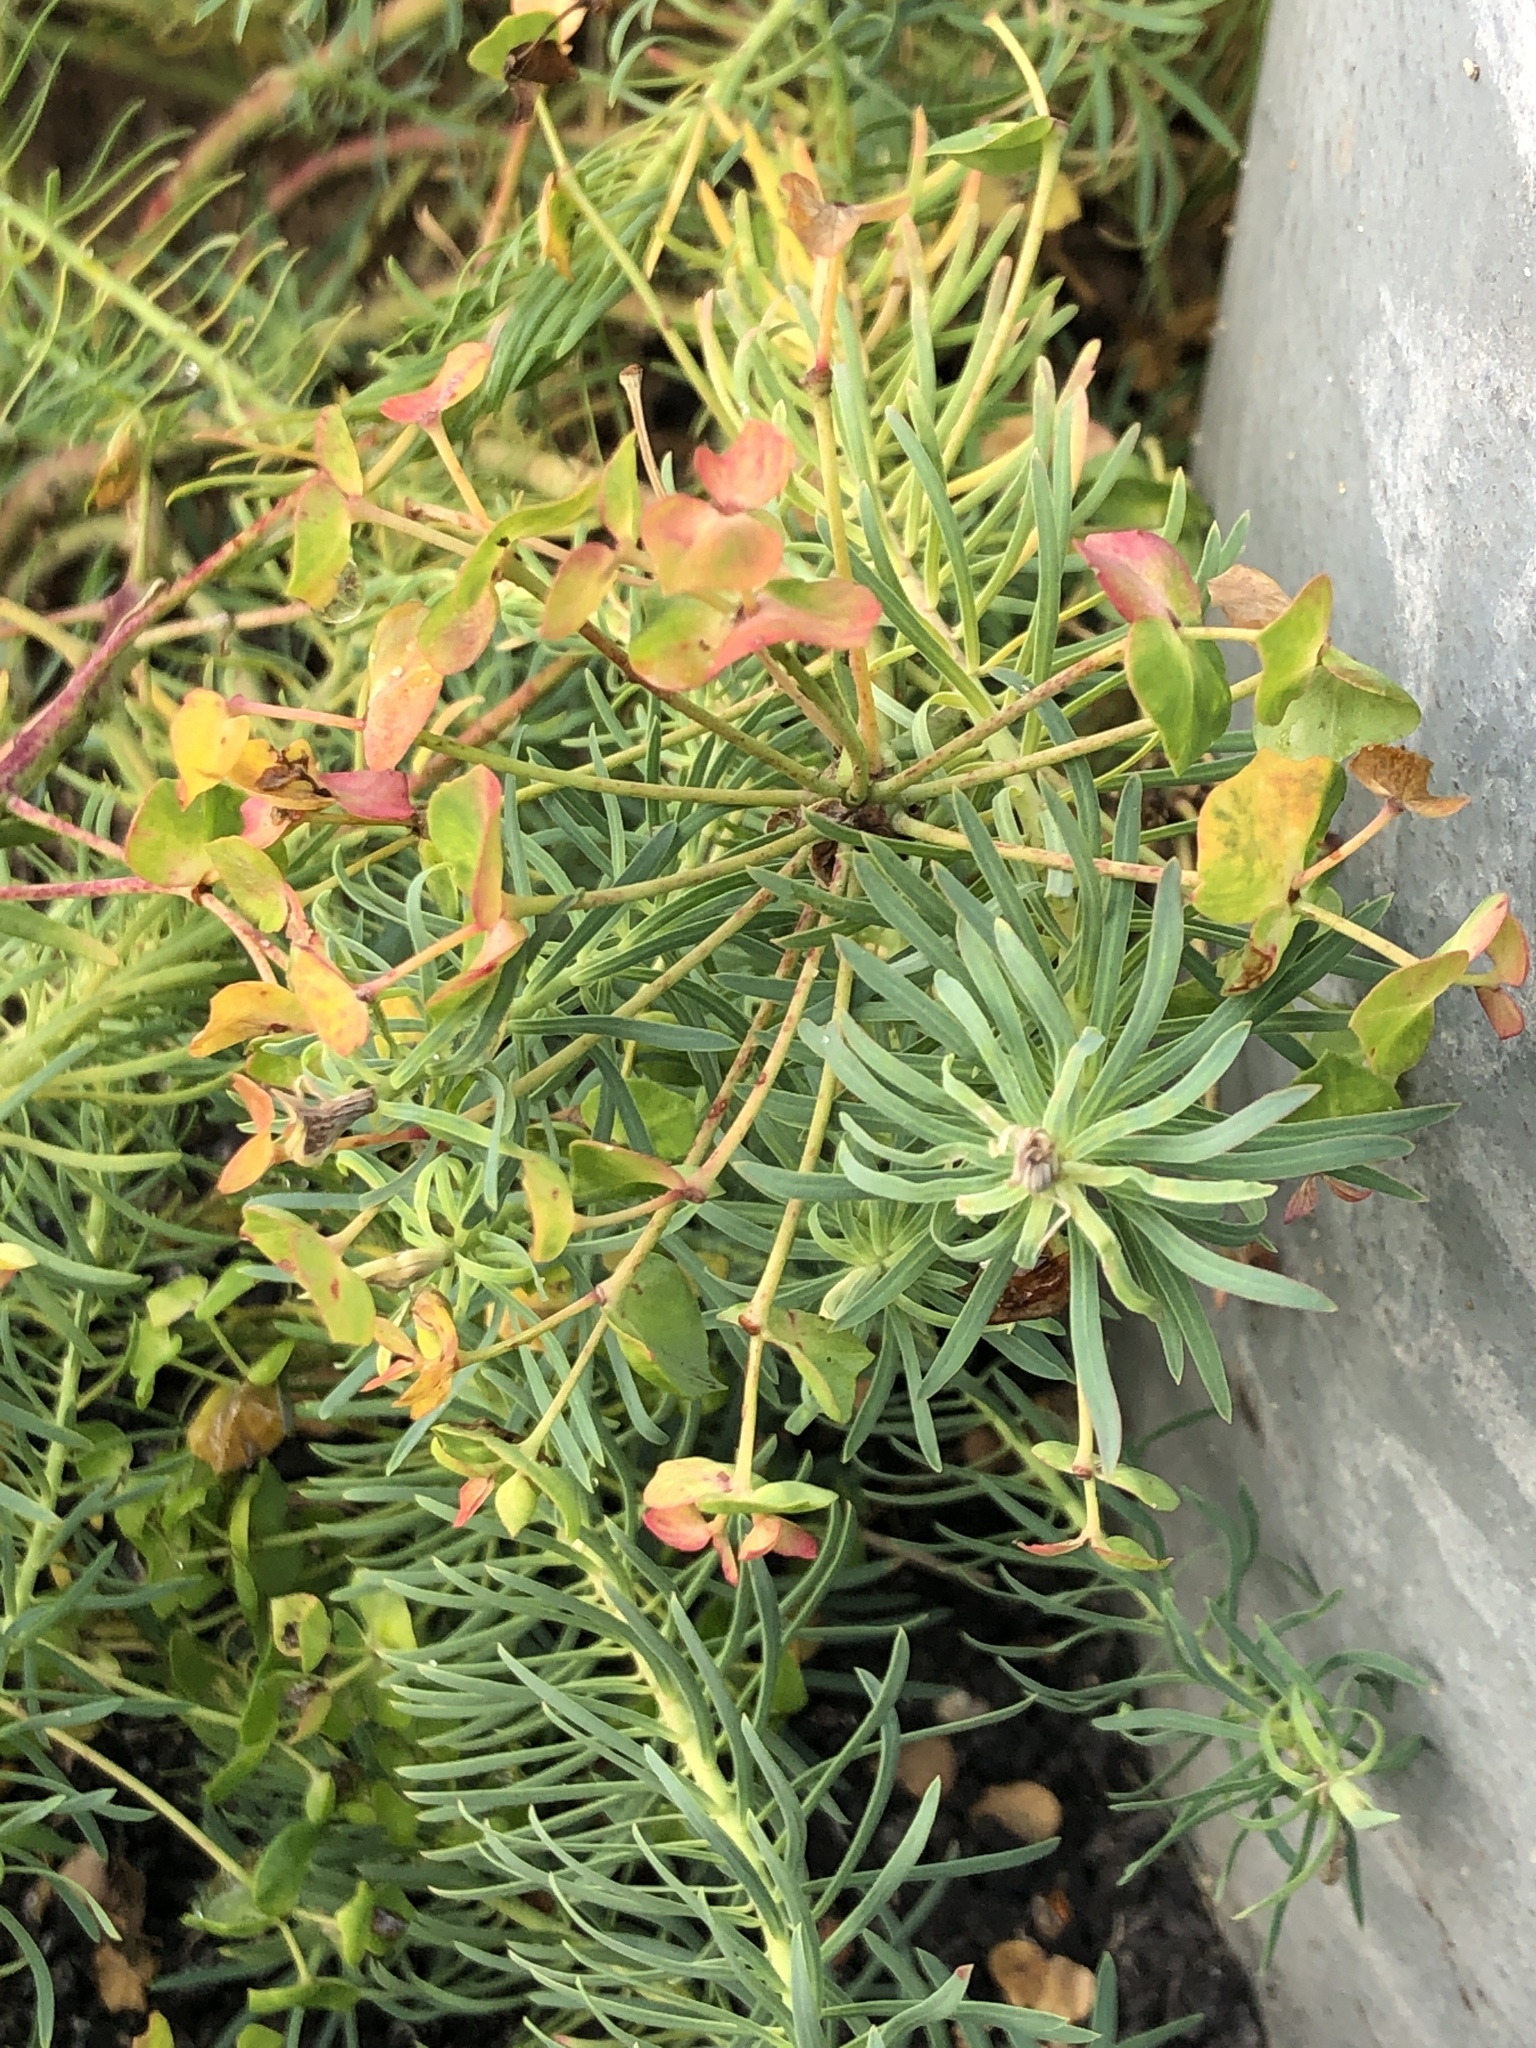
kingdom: Plantae
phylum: Tracheophyta
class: Magnoliopsida
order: Malpighiales
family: Euphorbiaceae
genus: Euphorbia
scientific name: Euphorbia cyparissias
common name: Cypress spurge
